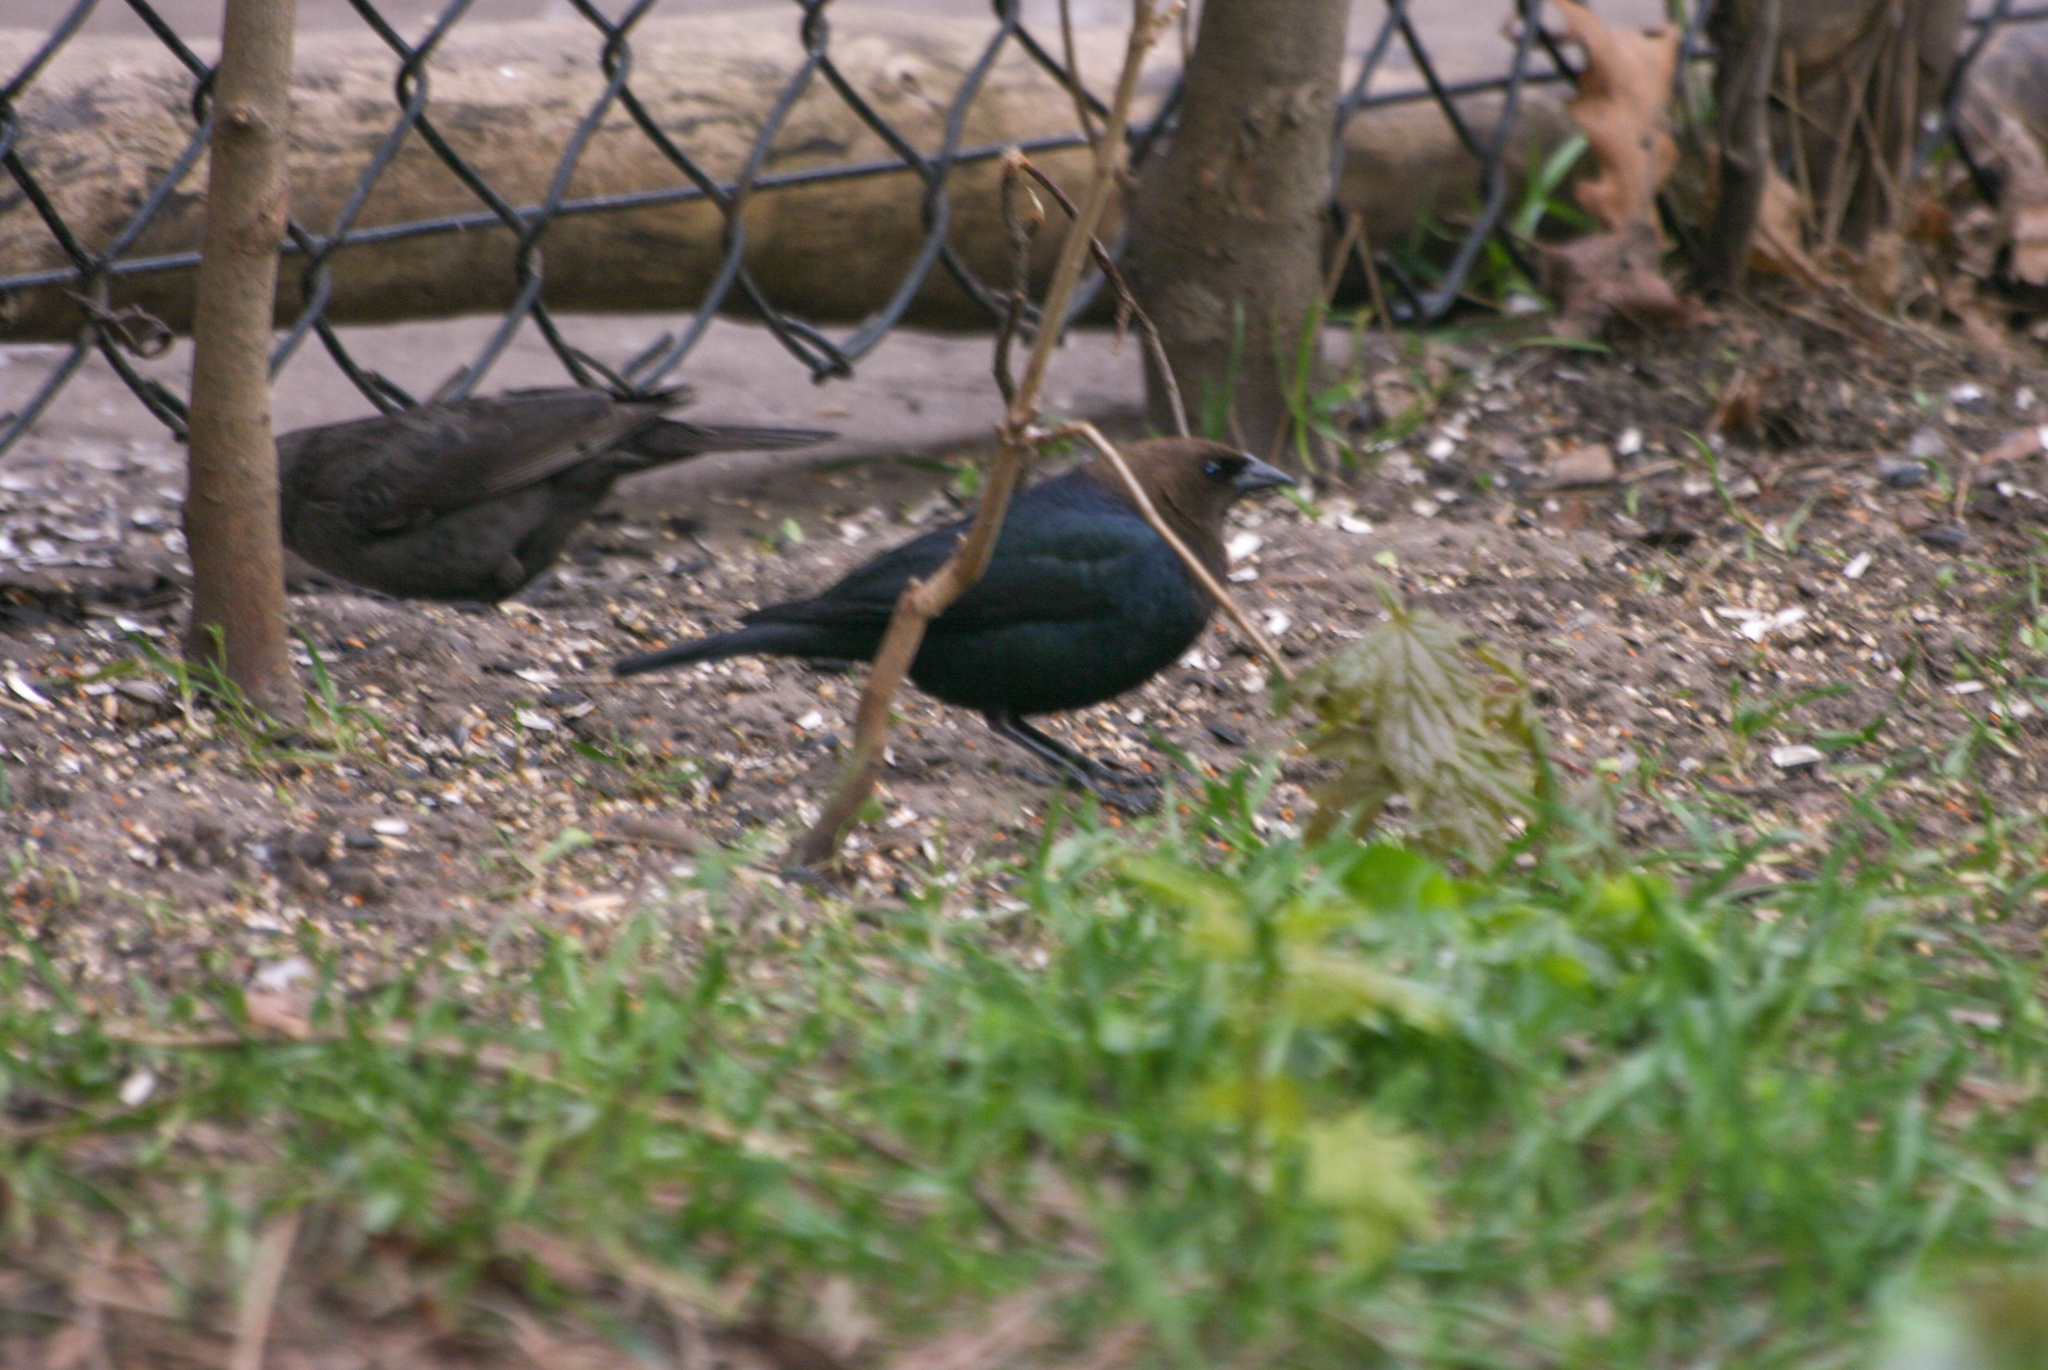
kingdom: Animalia
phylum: Chordata
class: Aves
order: Passeriformes
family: Icteridae
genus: Molothrus
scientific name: Molothrus ater
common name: Brown-headed cowbird
